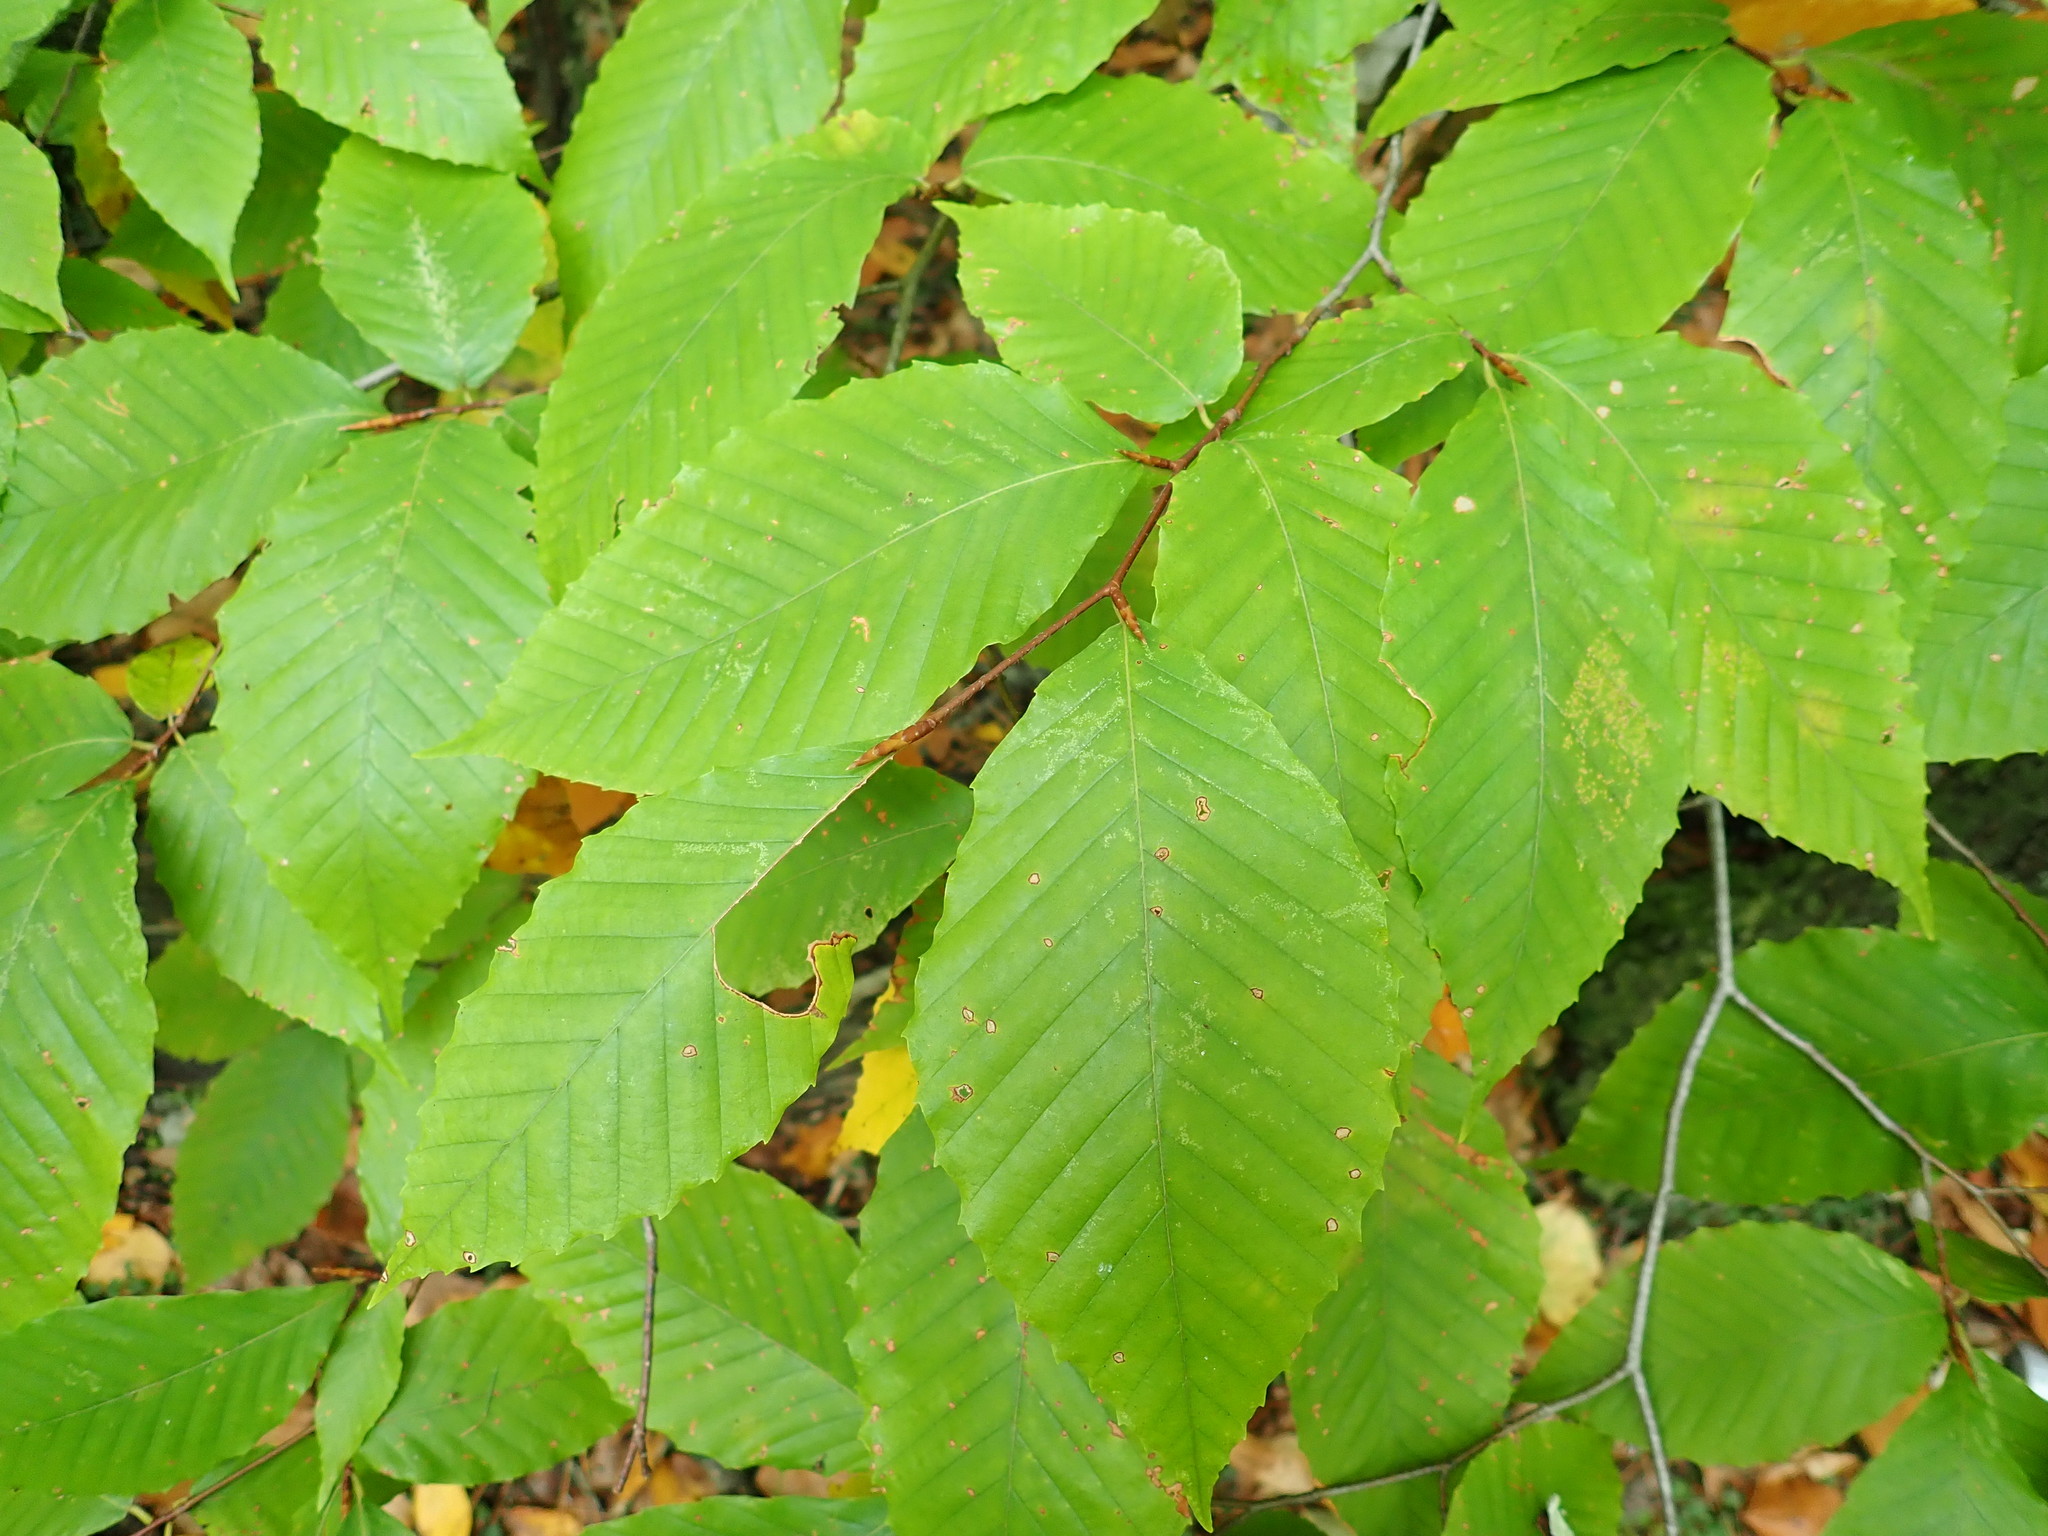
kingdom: Plantae
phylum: Tracheophyta
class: Magnoliopsida
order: Fagales
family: Fagaceae
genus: Fagus
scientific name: Fagus grandifolia
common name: American beech
